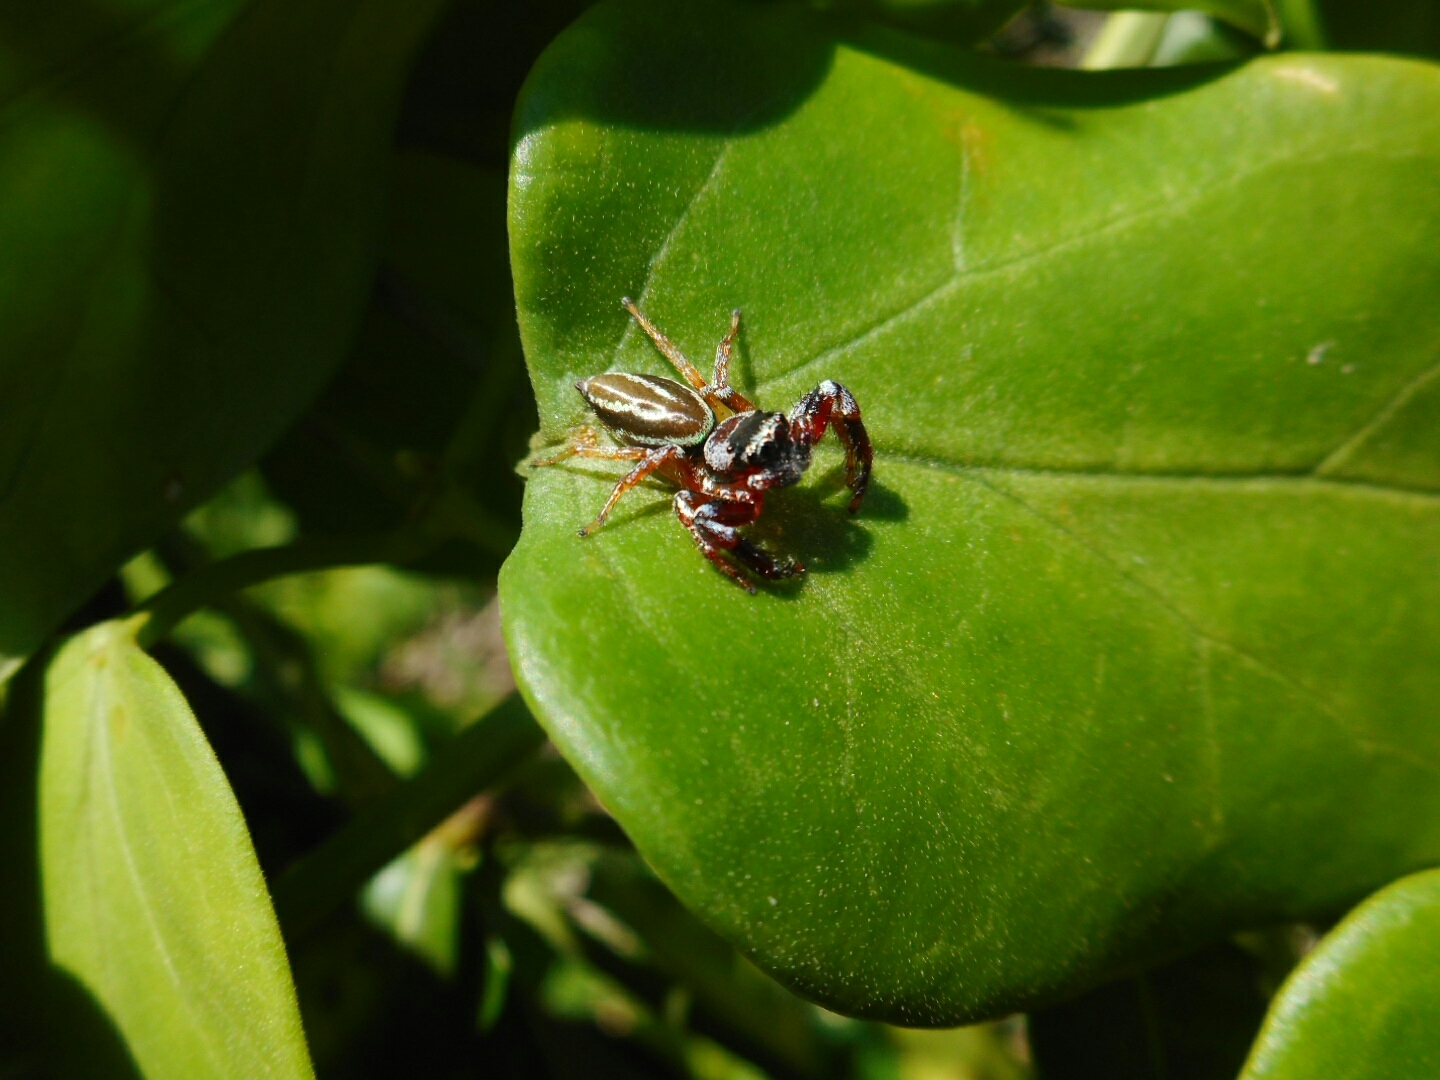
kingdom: Animalia
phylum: Arthropoda
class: Arachnida
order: Araneae
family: Salticidae
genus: Thiania
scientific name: Thiania bhamoensis
